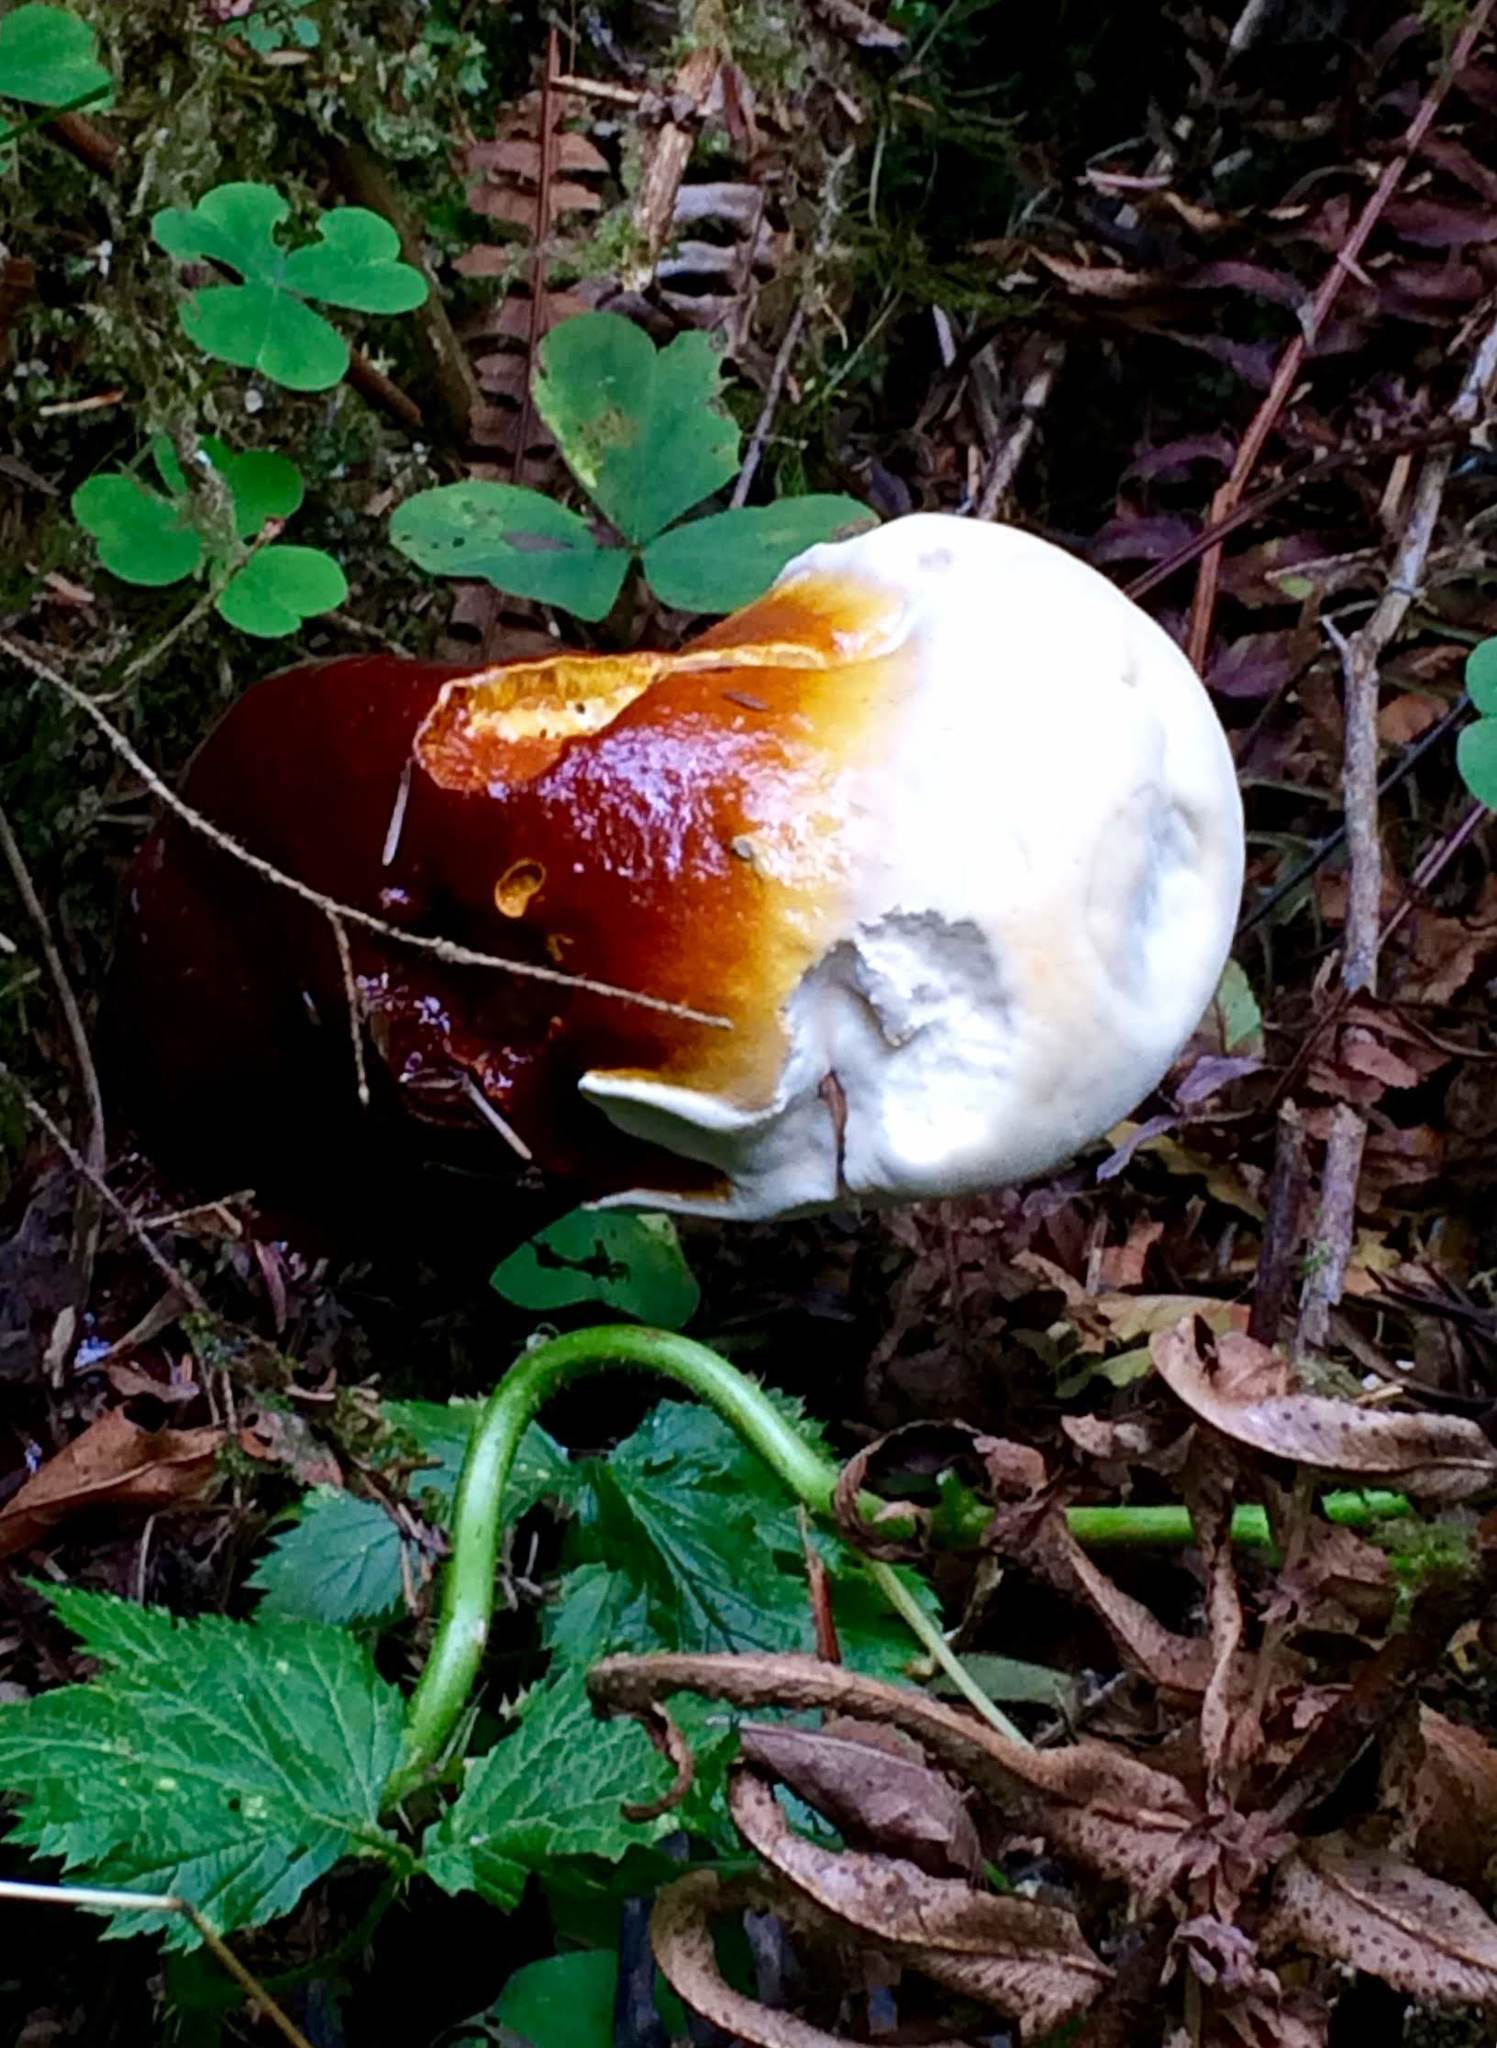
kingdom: Fungi
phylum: Basidiomycota
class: Agaricomycetes
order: Polyporales
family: Polyporaceae
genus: Ganoderma
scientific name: Ganoderma oregonense
